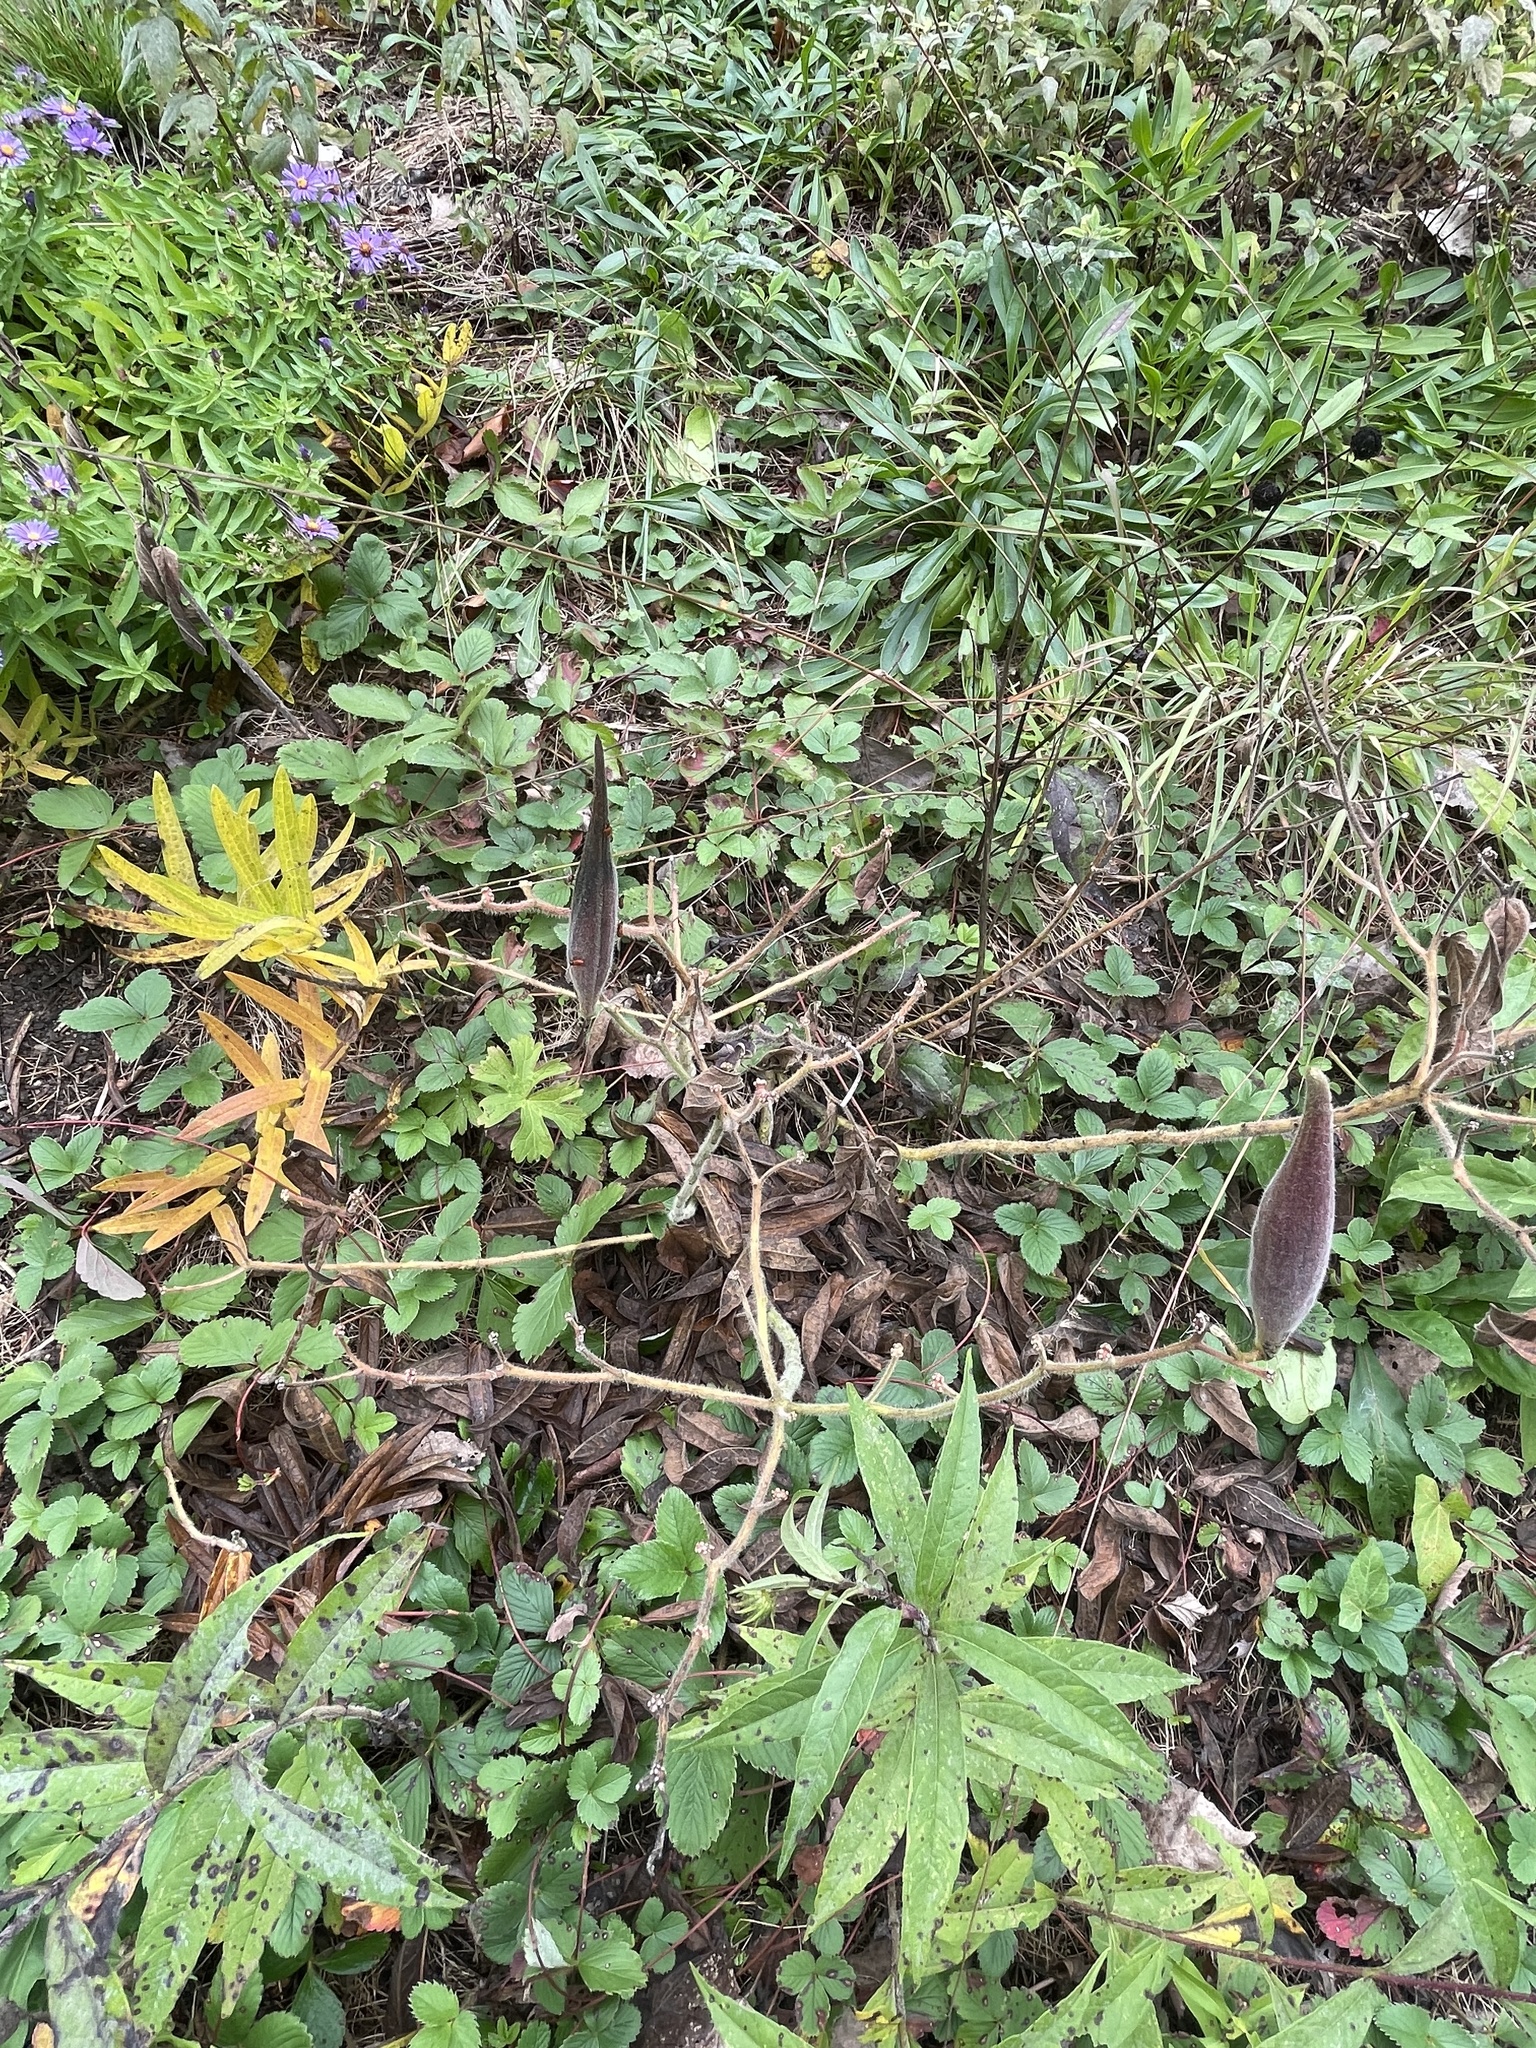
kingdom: Plantae
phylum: Tracheophyta
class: Magnoliopsida
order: Gentianales
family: Apocynaceae
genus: Asclepias
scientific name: Asclepias tuberosa
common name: Butterfly milkweed
